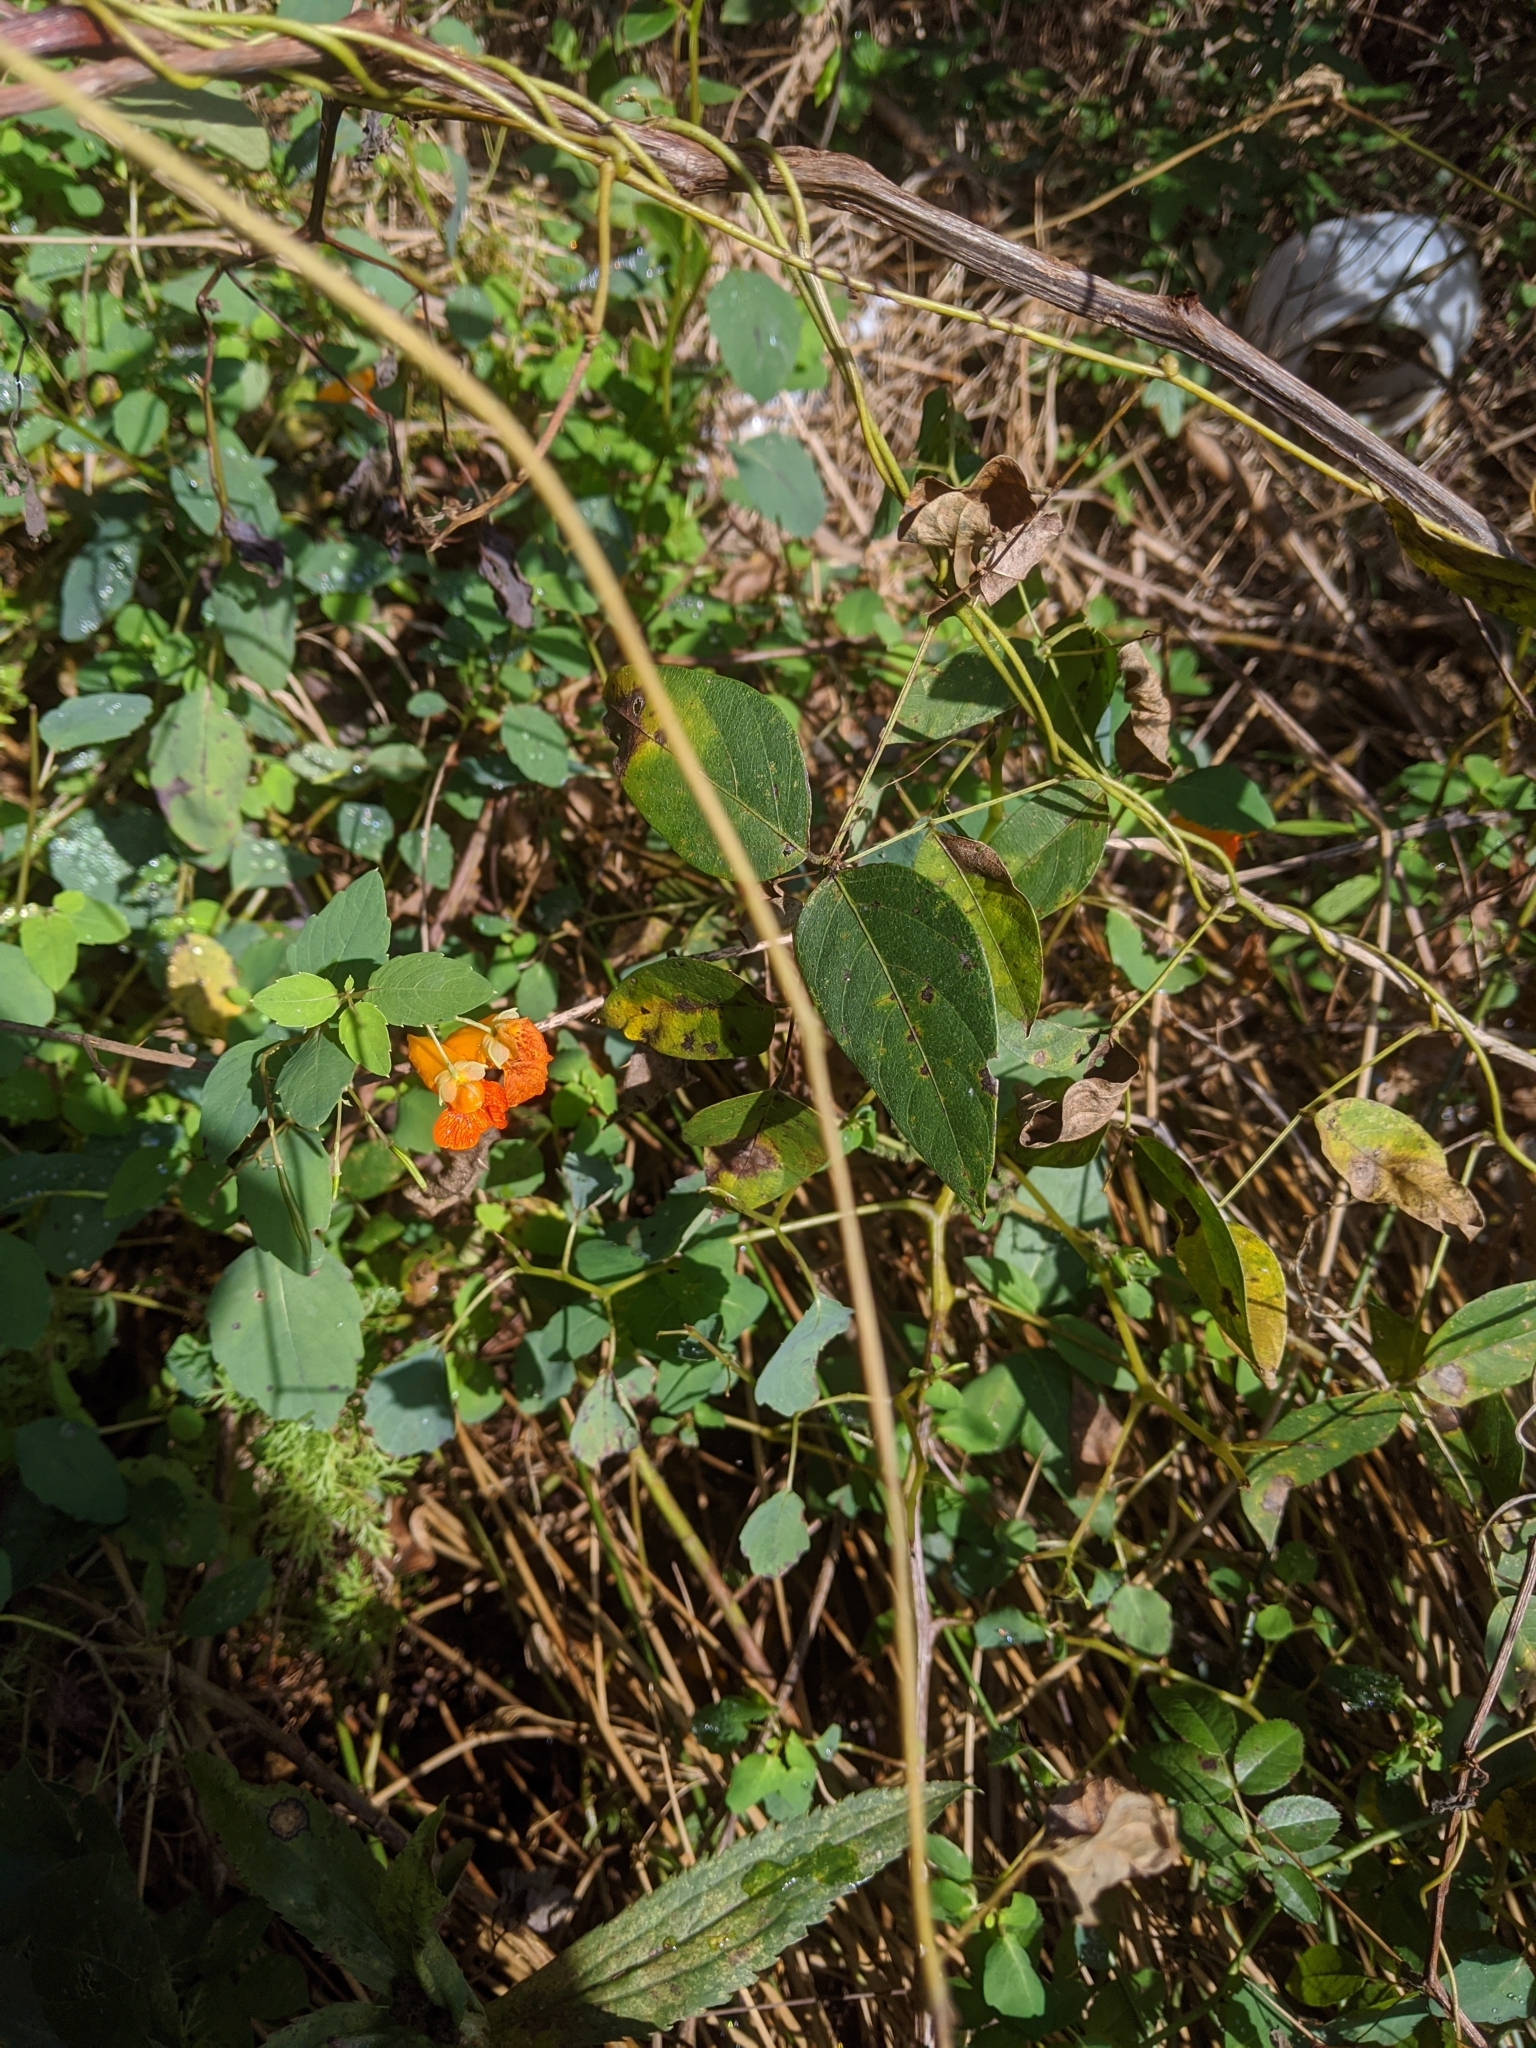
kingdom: Plantae
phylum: Tracheophyta
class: Magnoliopsida
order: Ericales
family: Balsaminaceae
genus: Impatiens
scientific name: Impatiens capensis
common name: Orange balsam
